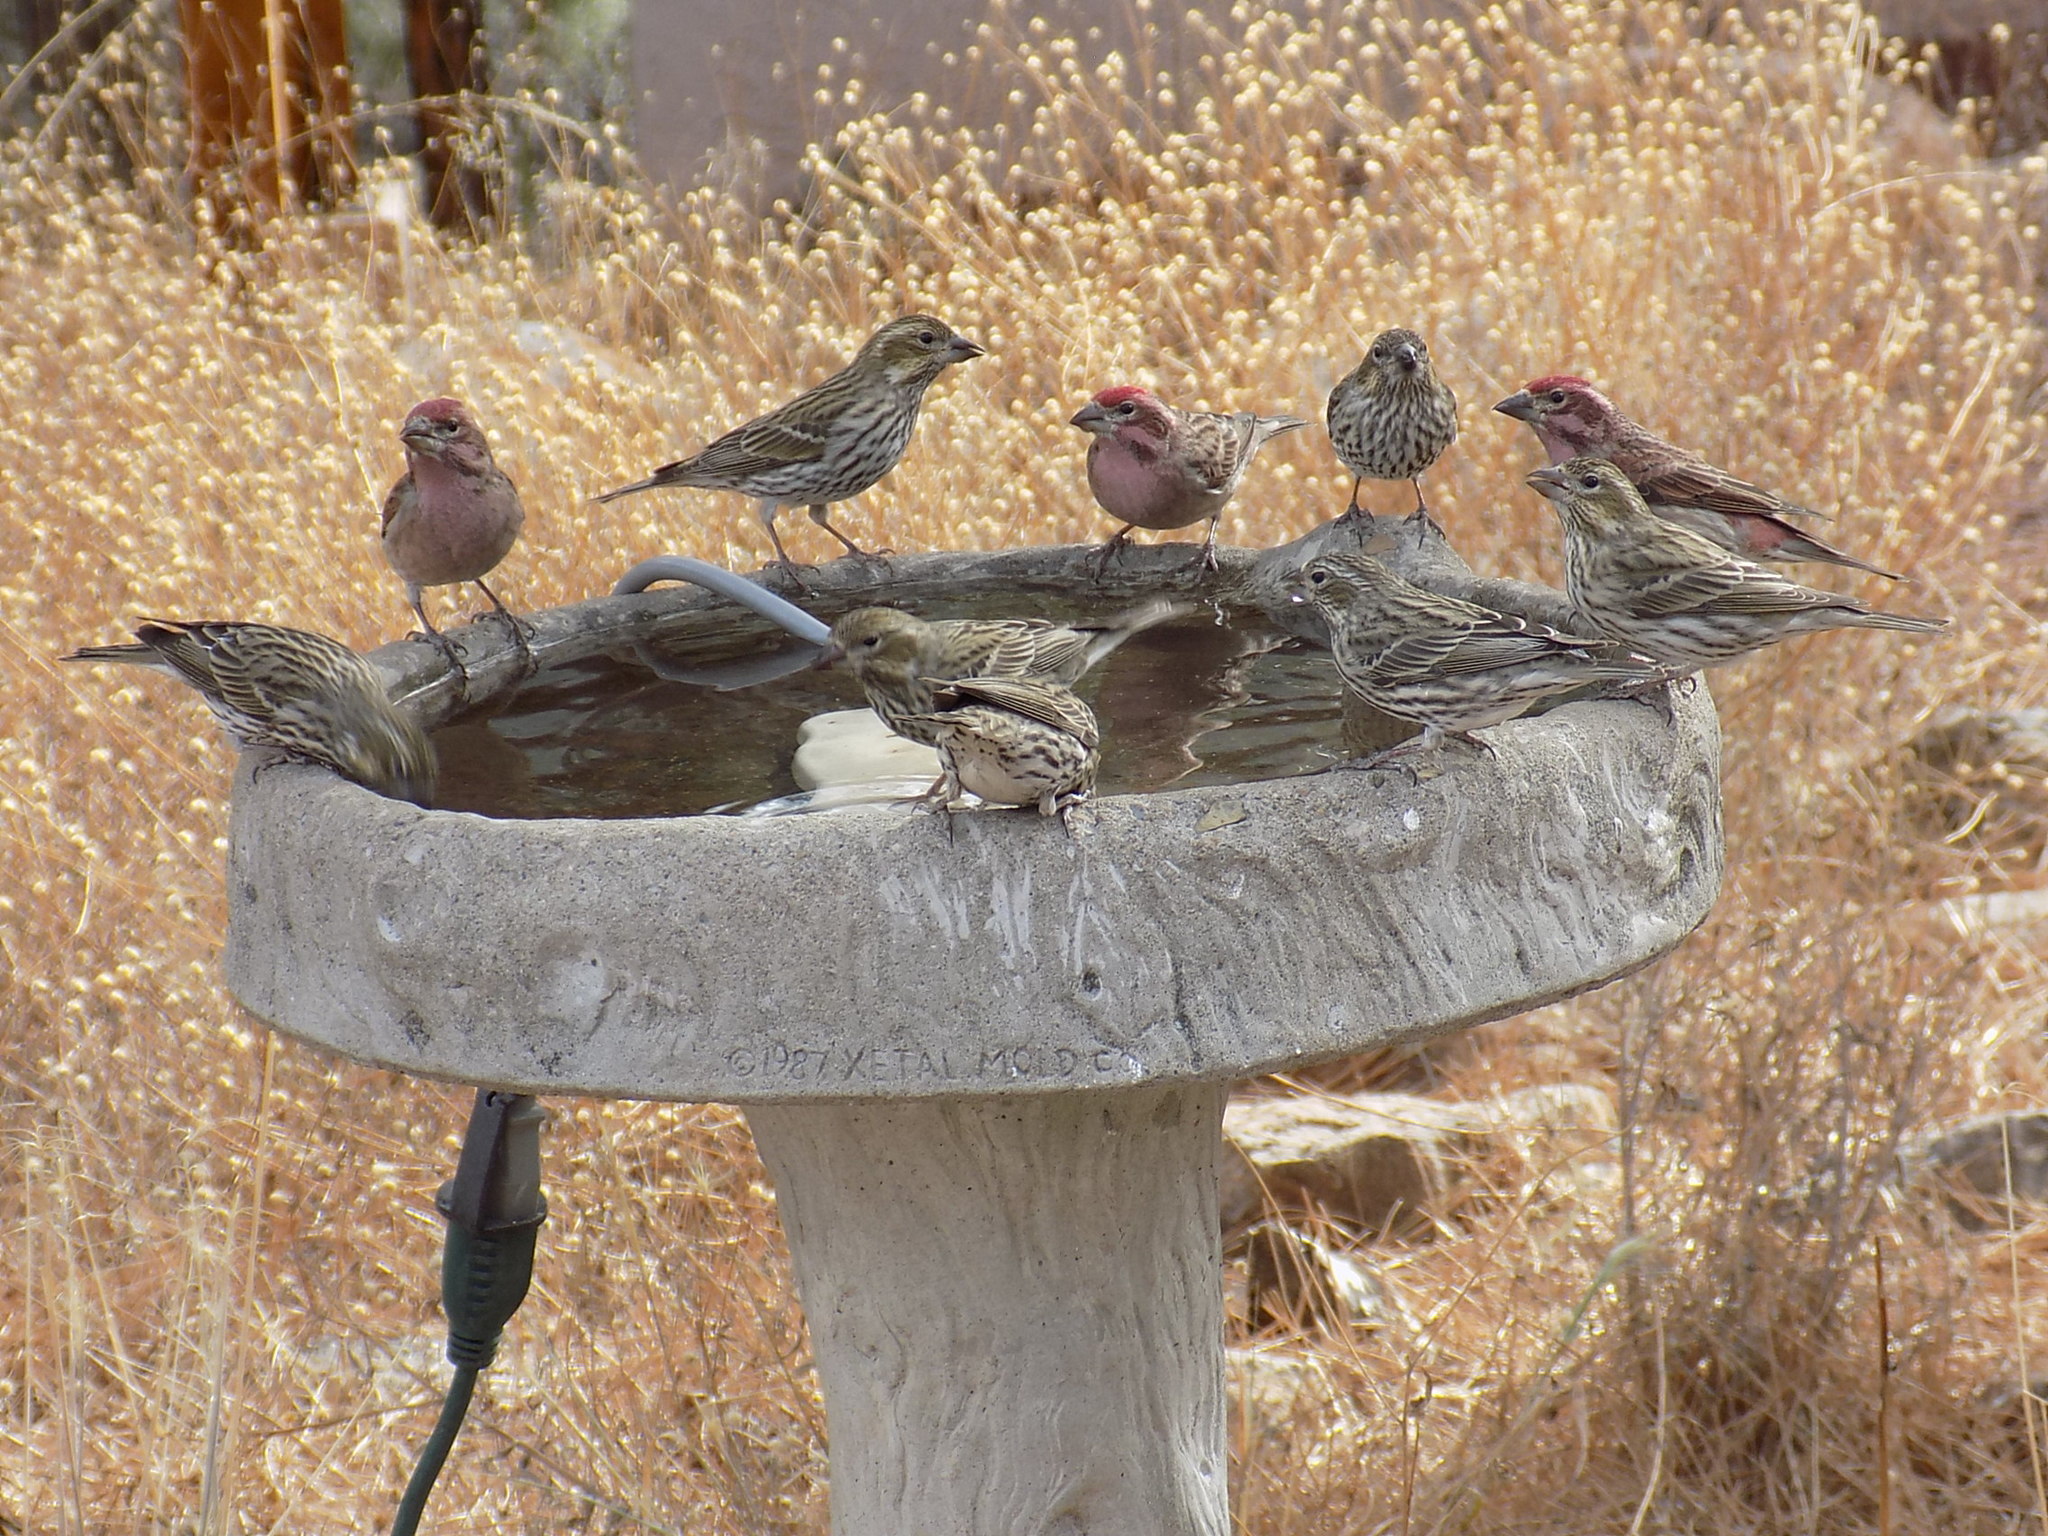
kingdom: Animalia
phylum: Chordata
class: Aves
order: Passeriformes
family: Fringillidae
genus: Haemorhous
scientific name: Haemorhous cassinii
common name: Cassin's finch
